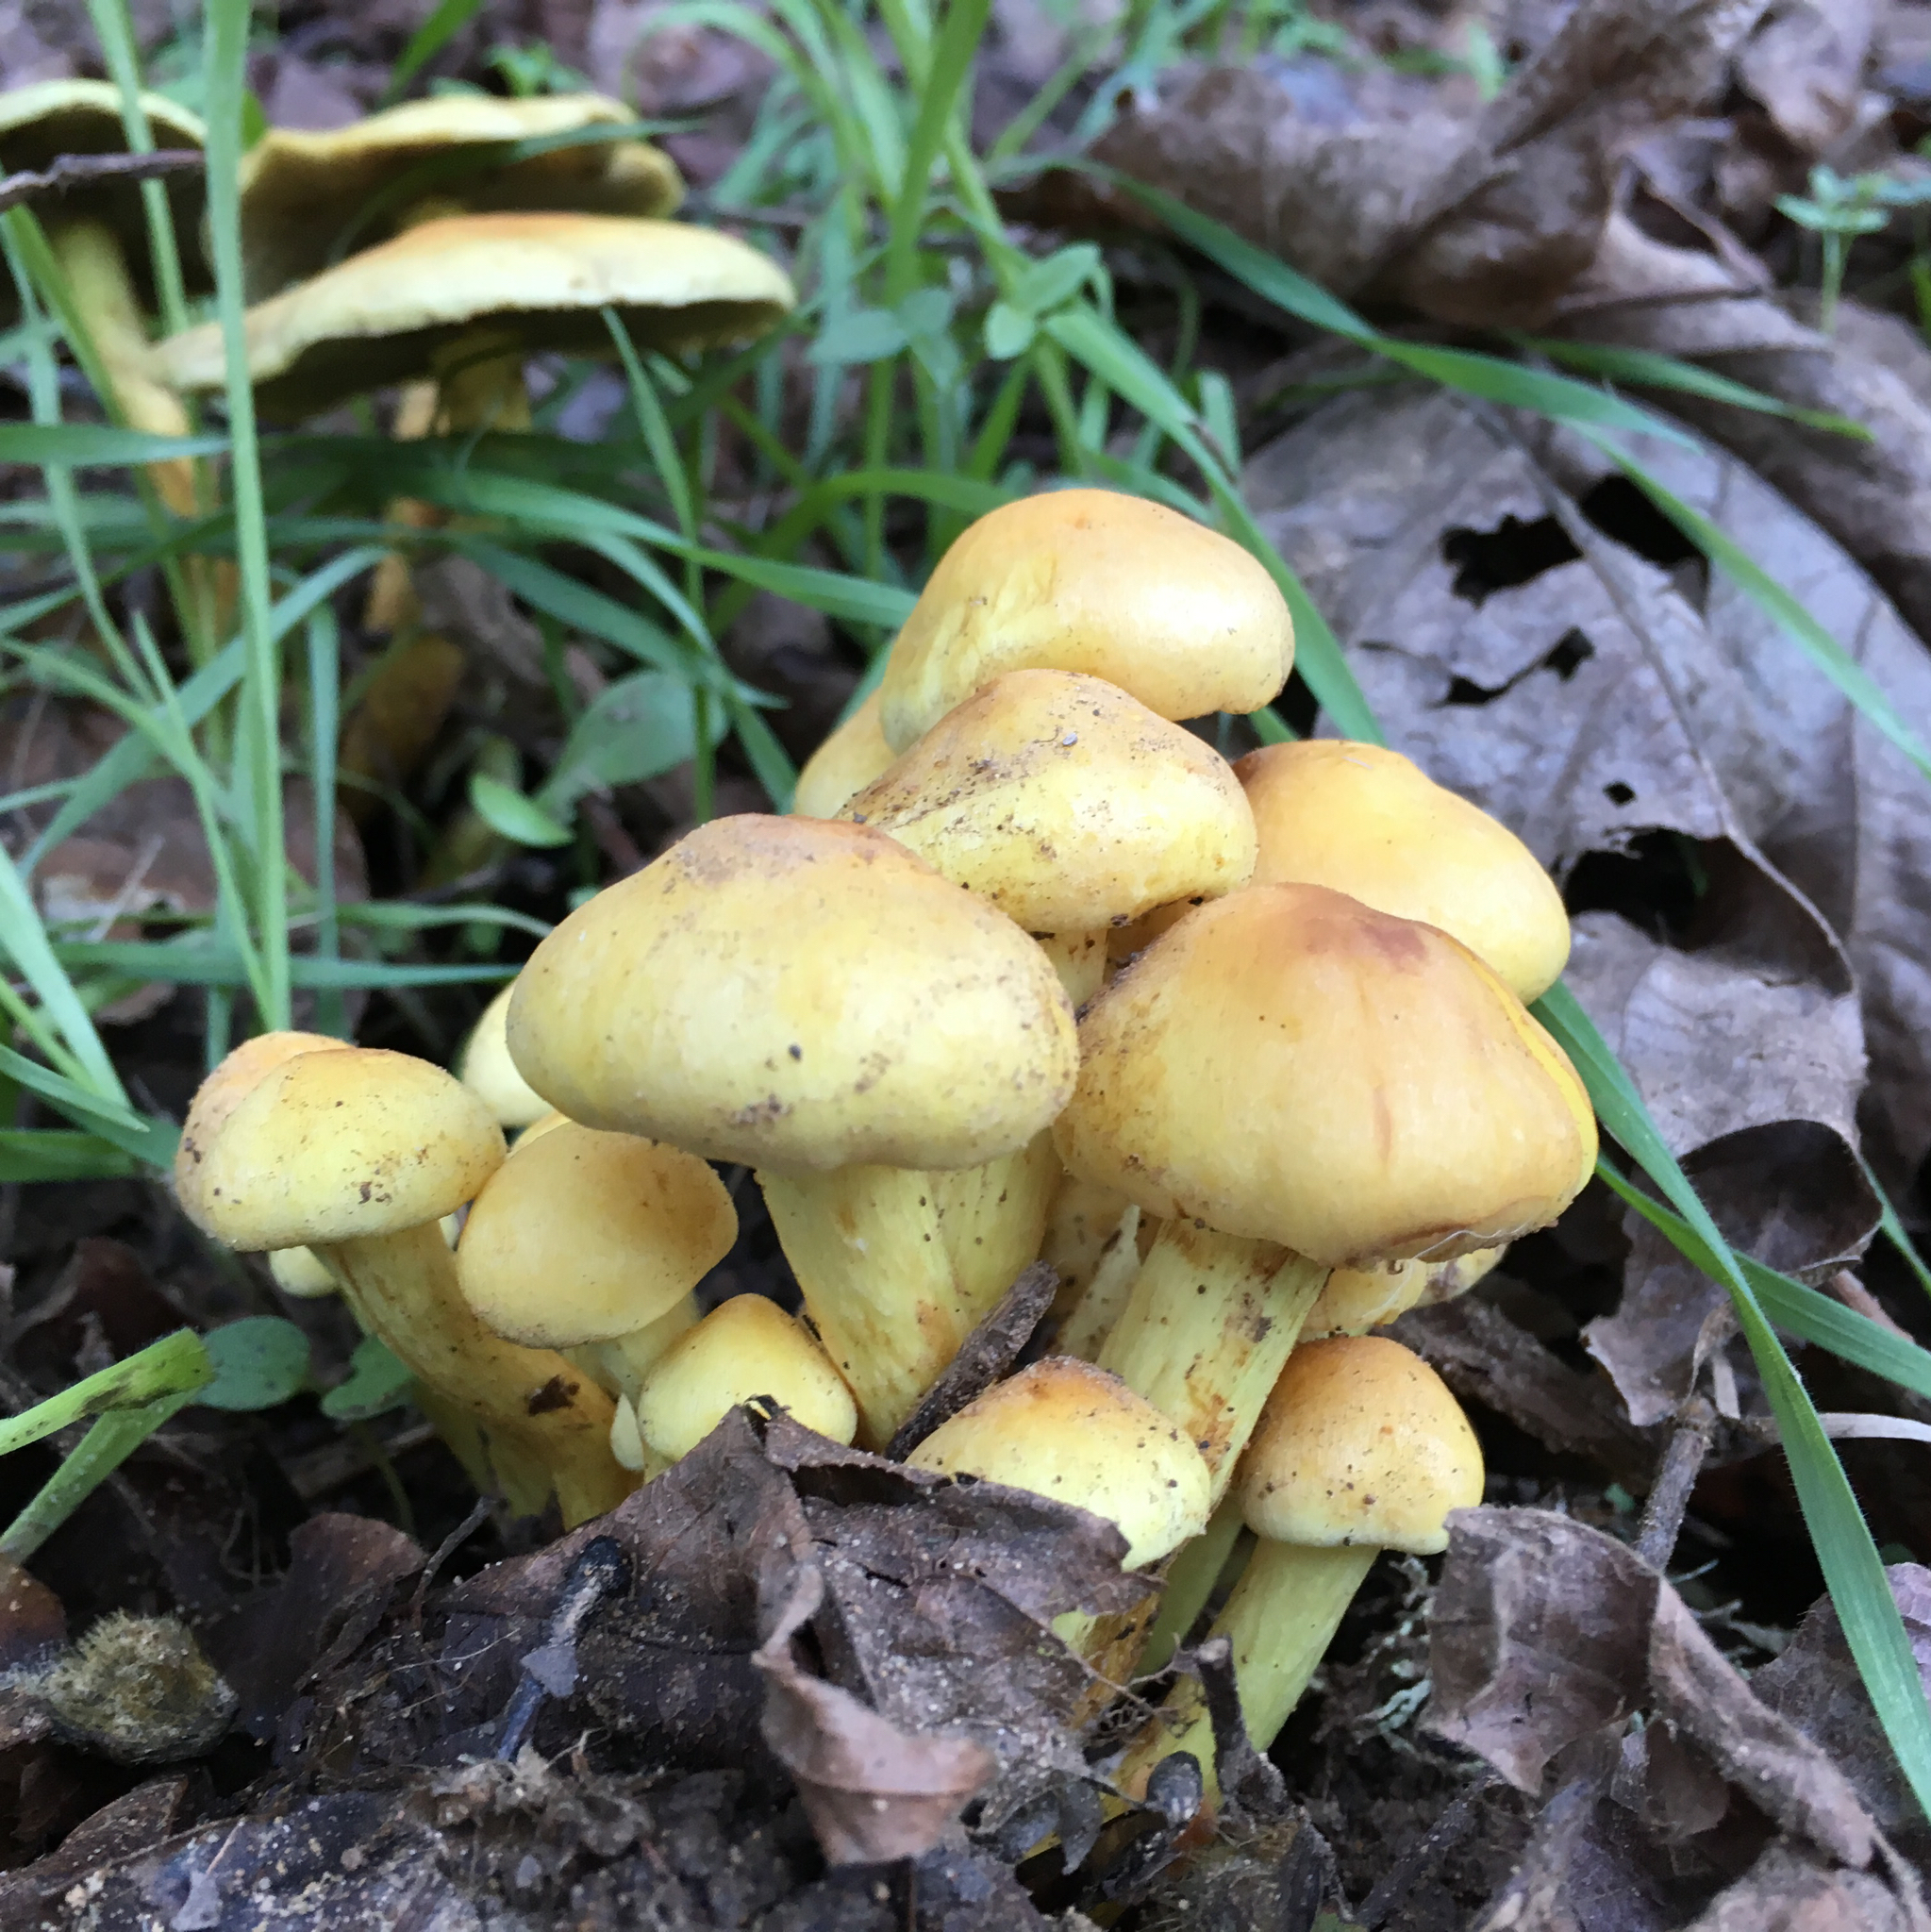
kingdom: Fungi
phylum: Basidiomycota
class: Agaricomycetes
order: Agaricales
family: Strophariaceae
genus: Hypholoma
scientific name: Hypholoma fasciculare
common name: Sulphur tuft
